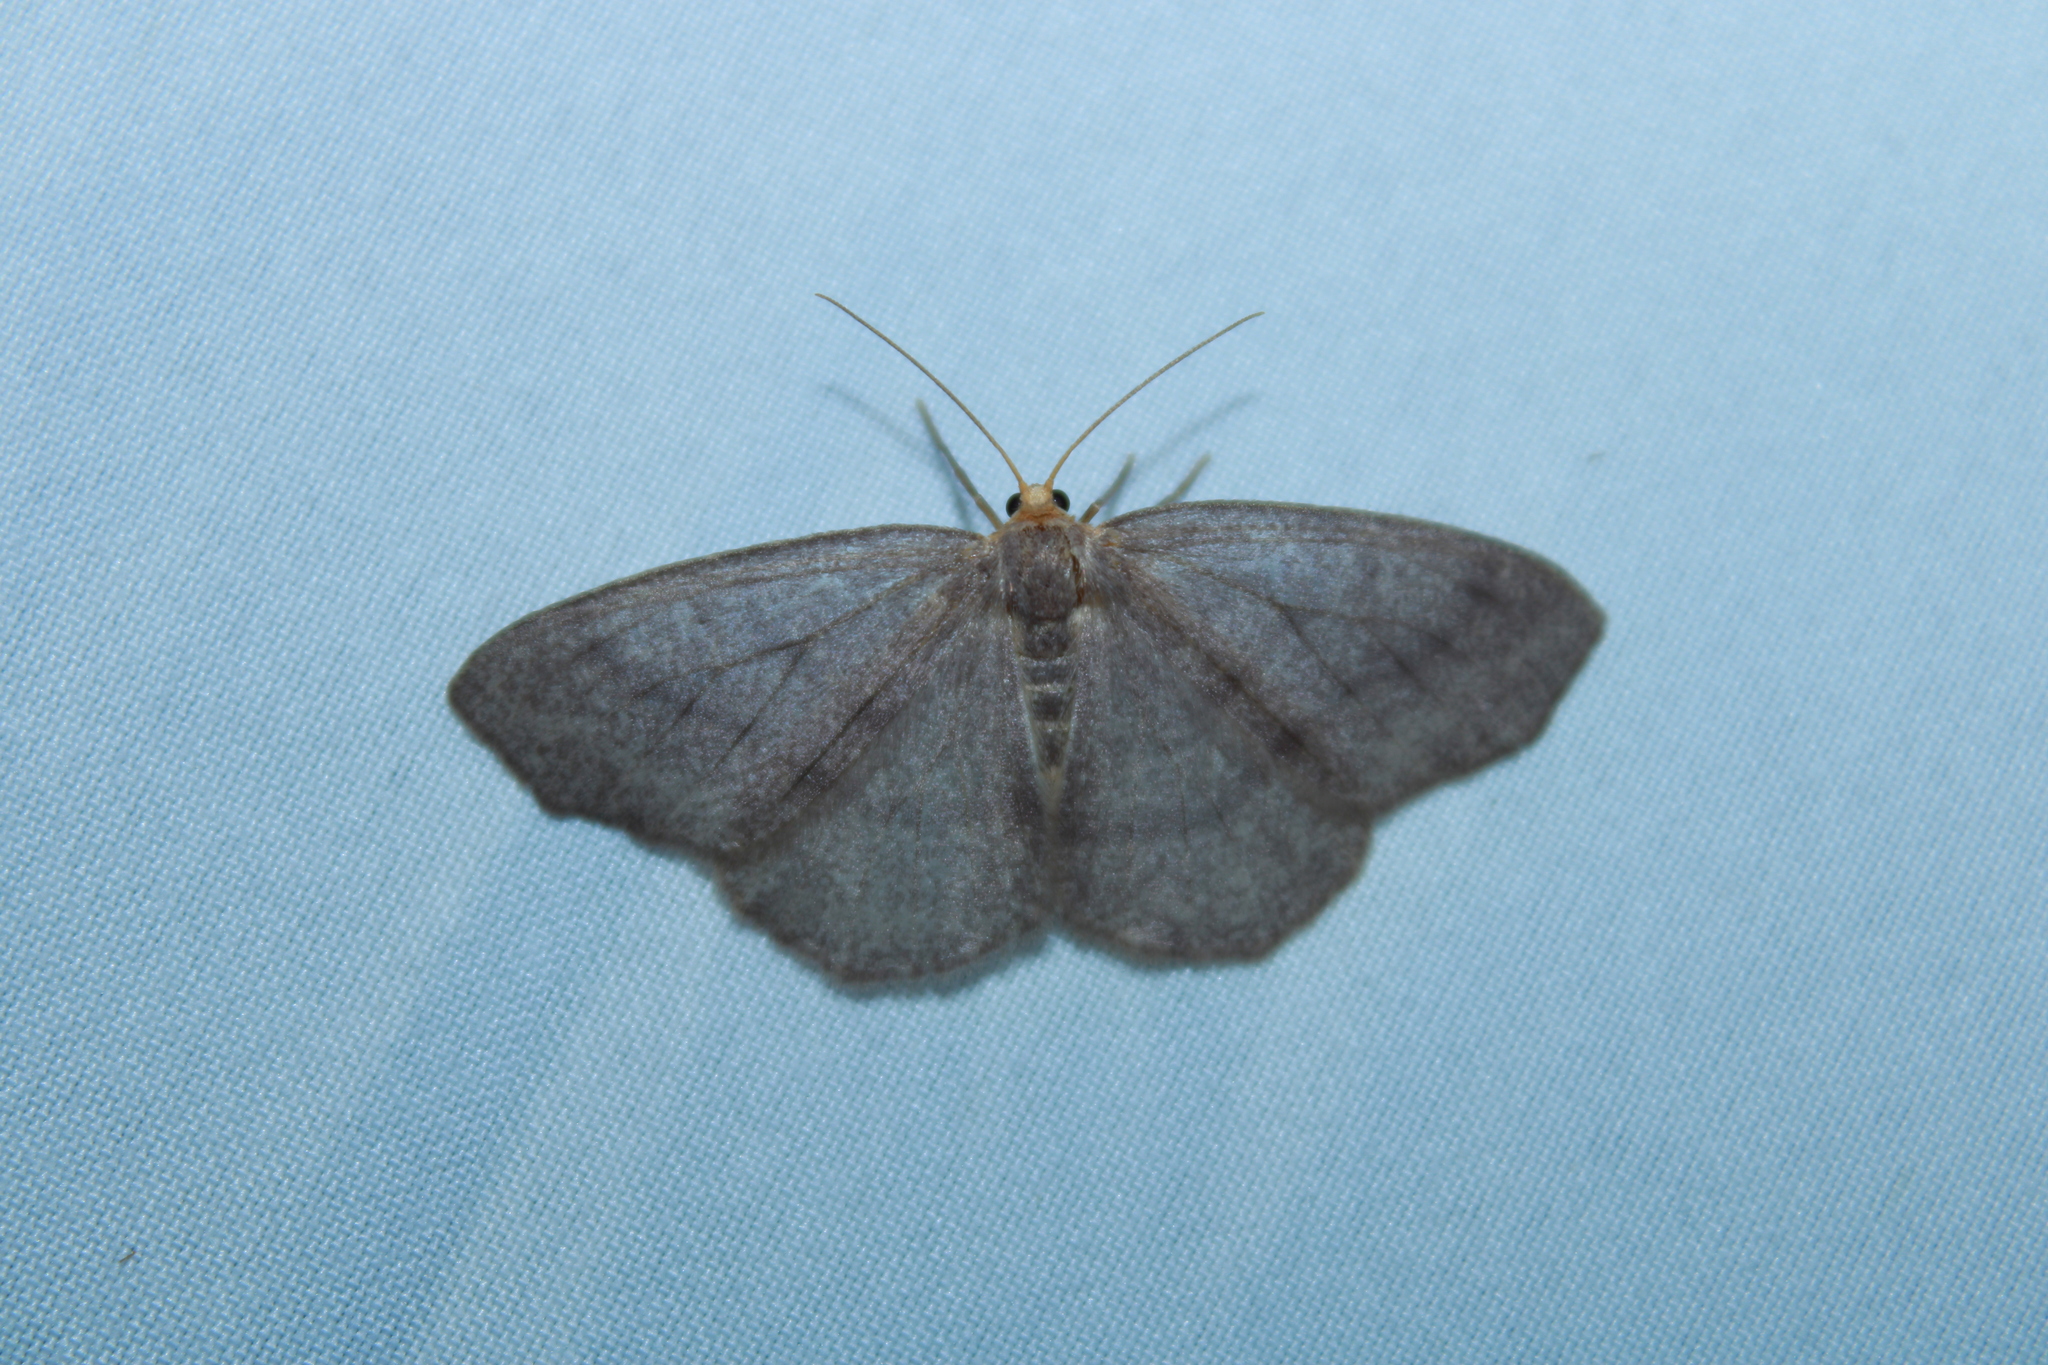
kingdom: Animalia
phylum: Arthropoda
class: Insecta
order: Lepidoptera
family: Geometridae
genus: Lambdina
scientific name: Lambdina pellucidaria
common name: Eastern pinelooper
